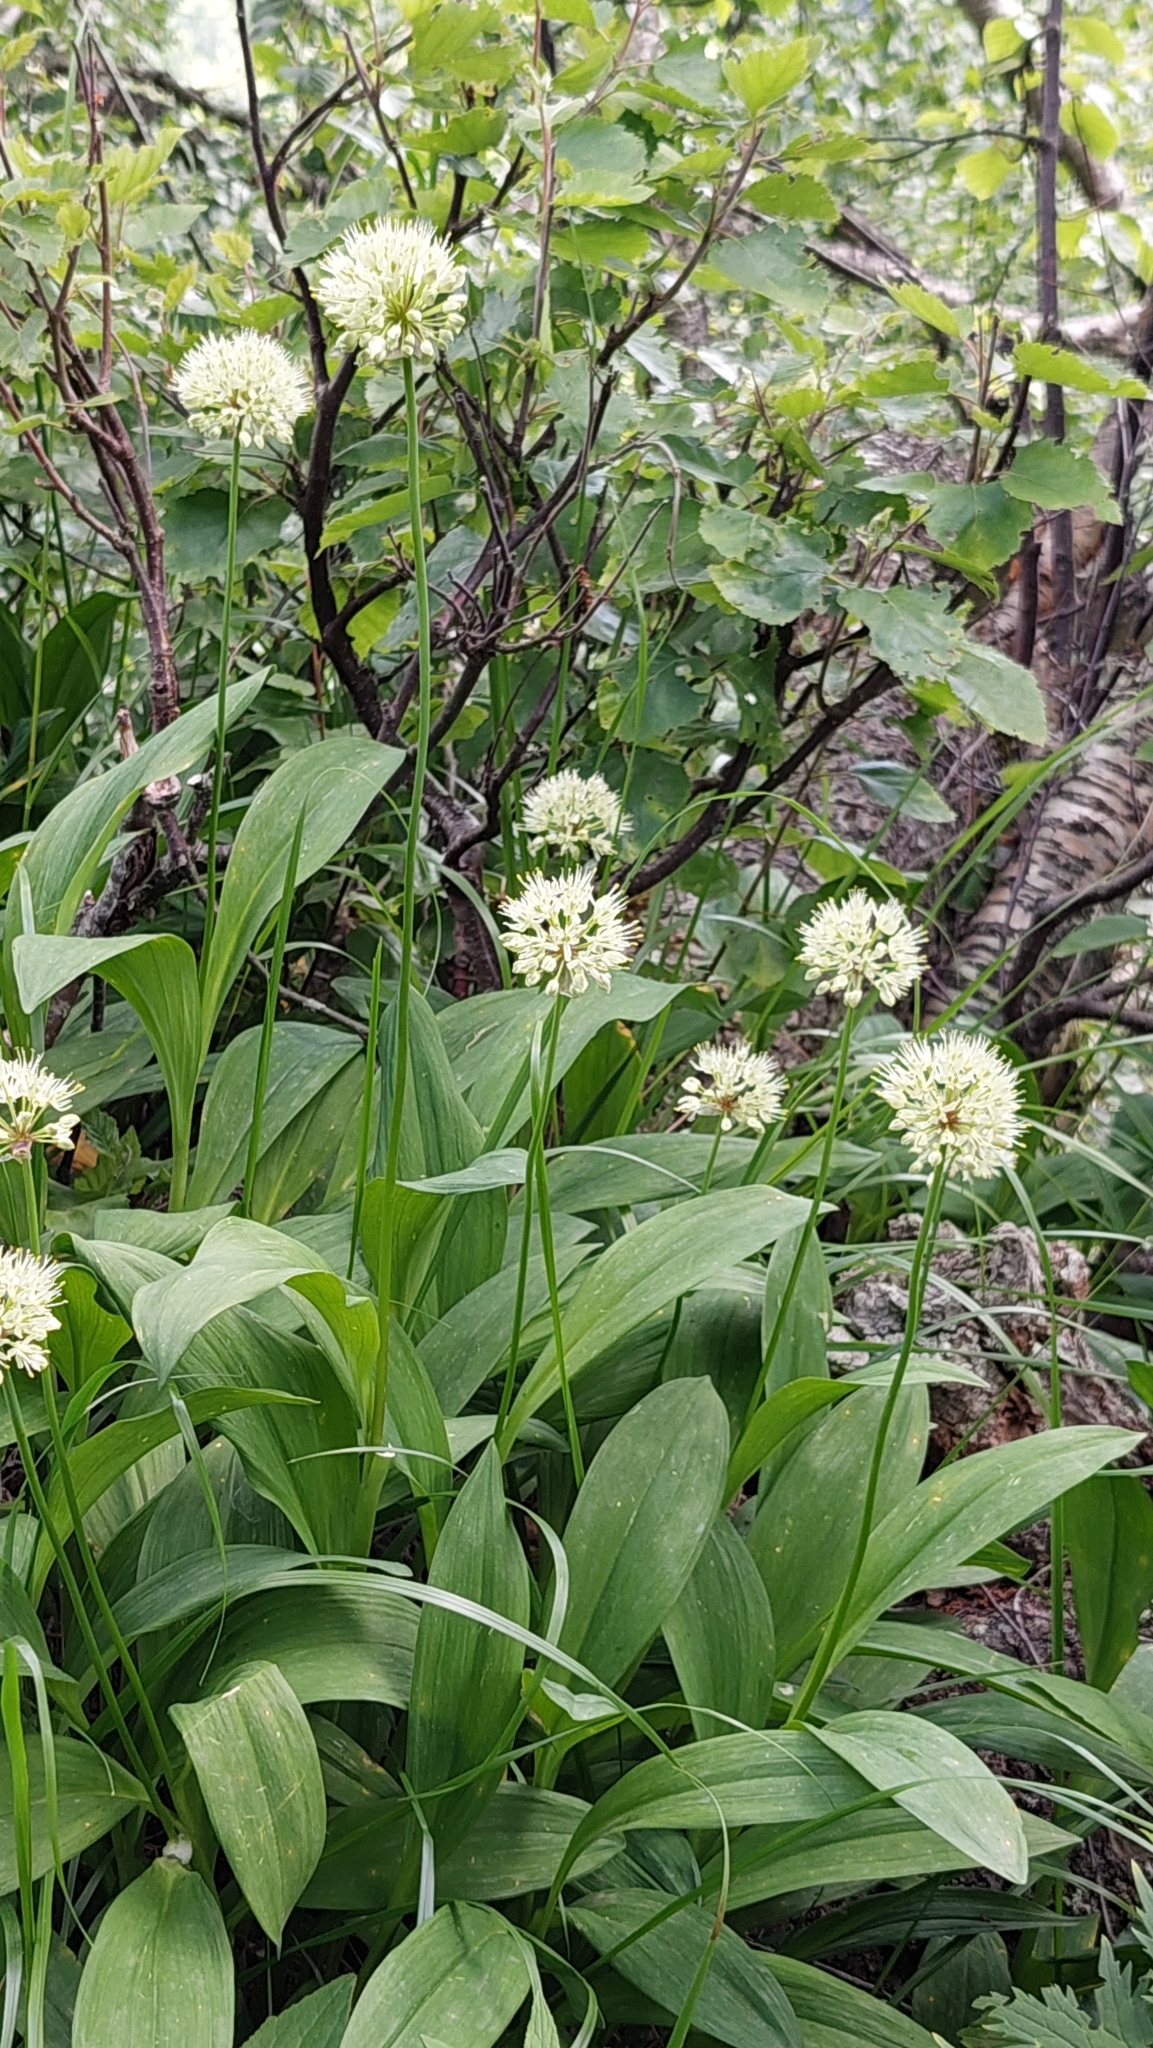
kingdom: Plantae
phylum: Tracheophyta
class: Liliopsida
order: Asparagales
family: Amaryllidaceae
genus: Allium
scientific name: Allium victorialis
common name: Alpine leek
